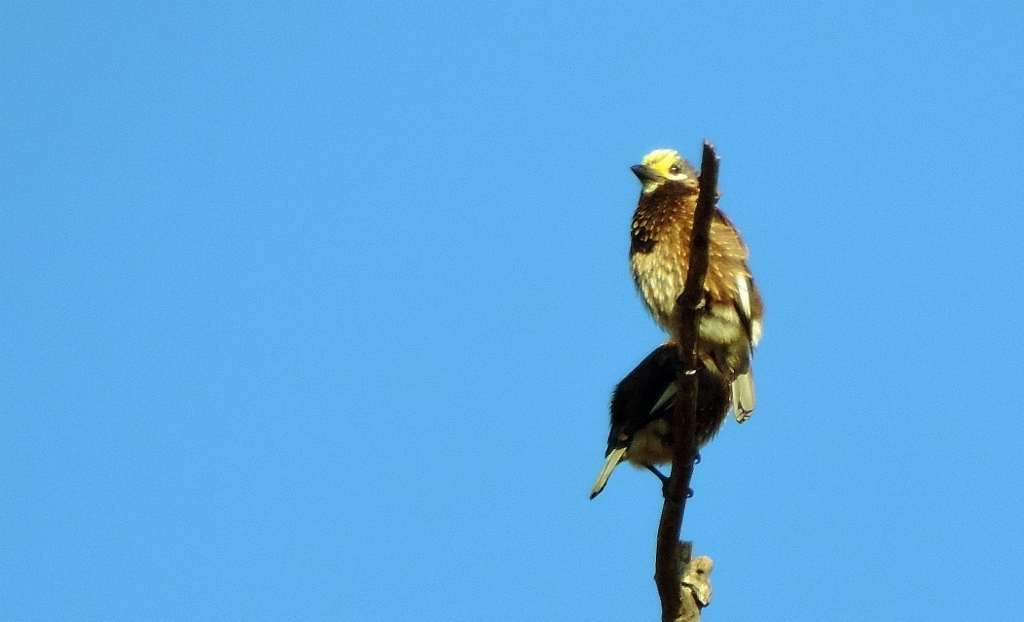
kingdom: Animalia
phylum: Chordata
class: Aves
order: Piciformes
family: Lybiidae
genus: Stactolaema
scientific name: Stactolaema whytii
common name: Whyte's barbet
